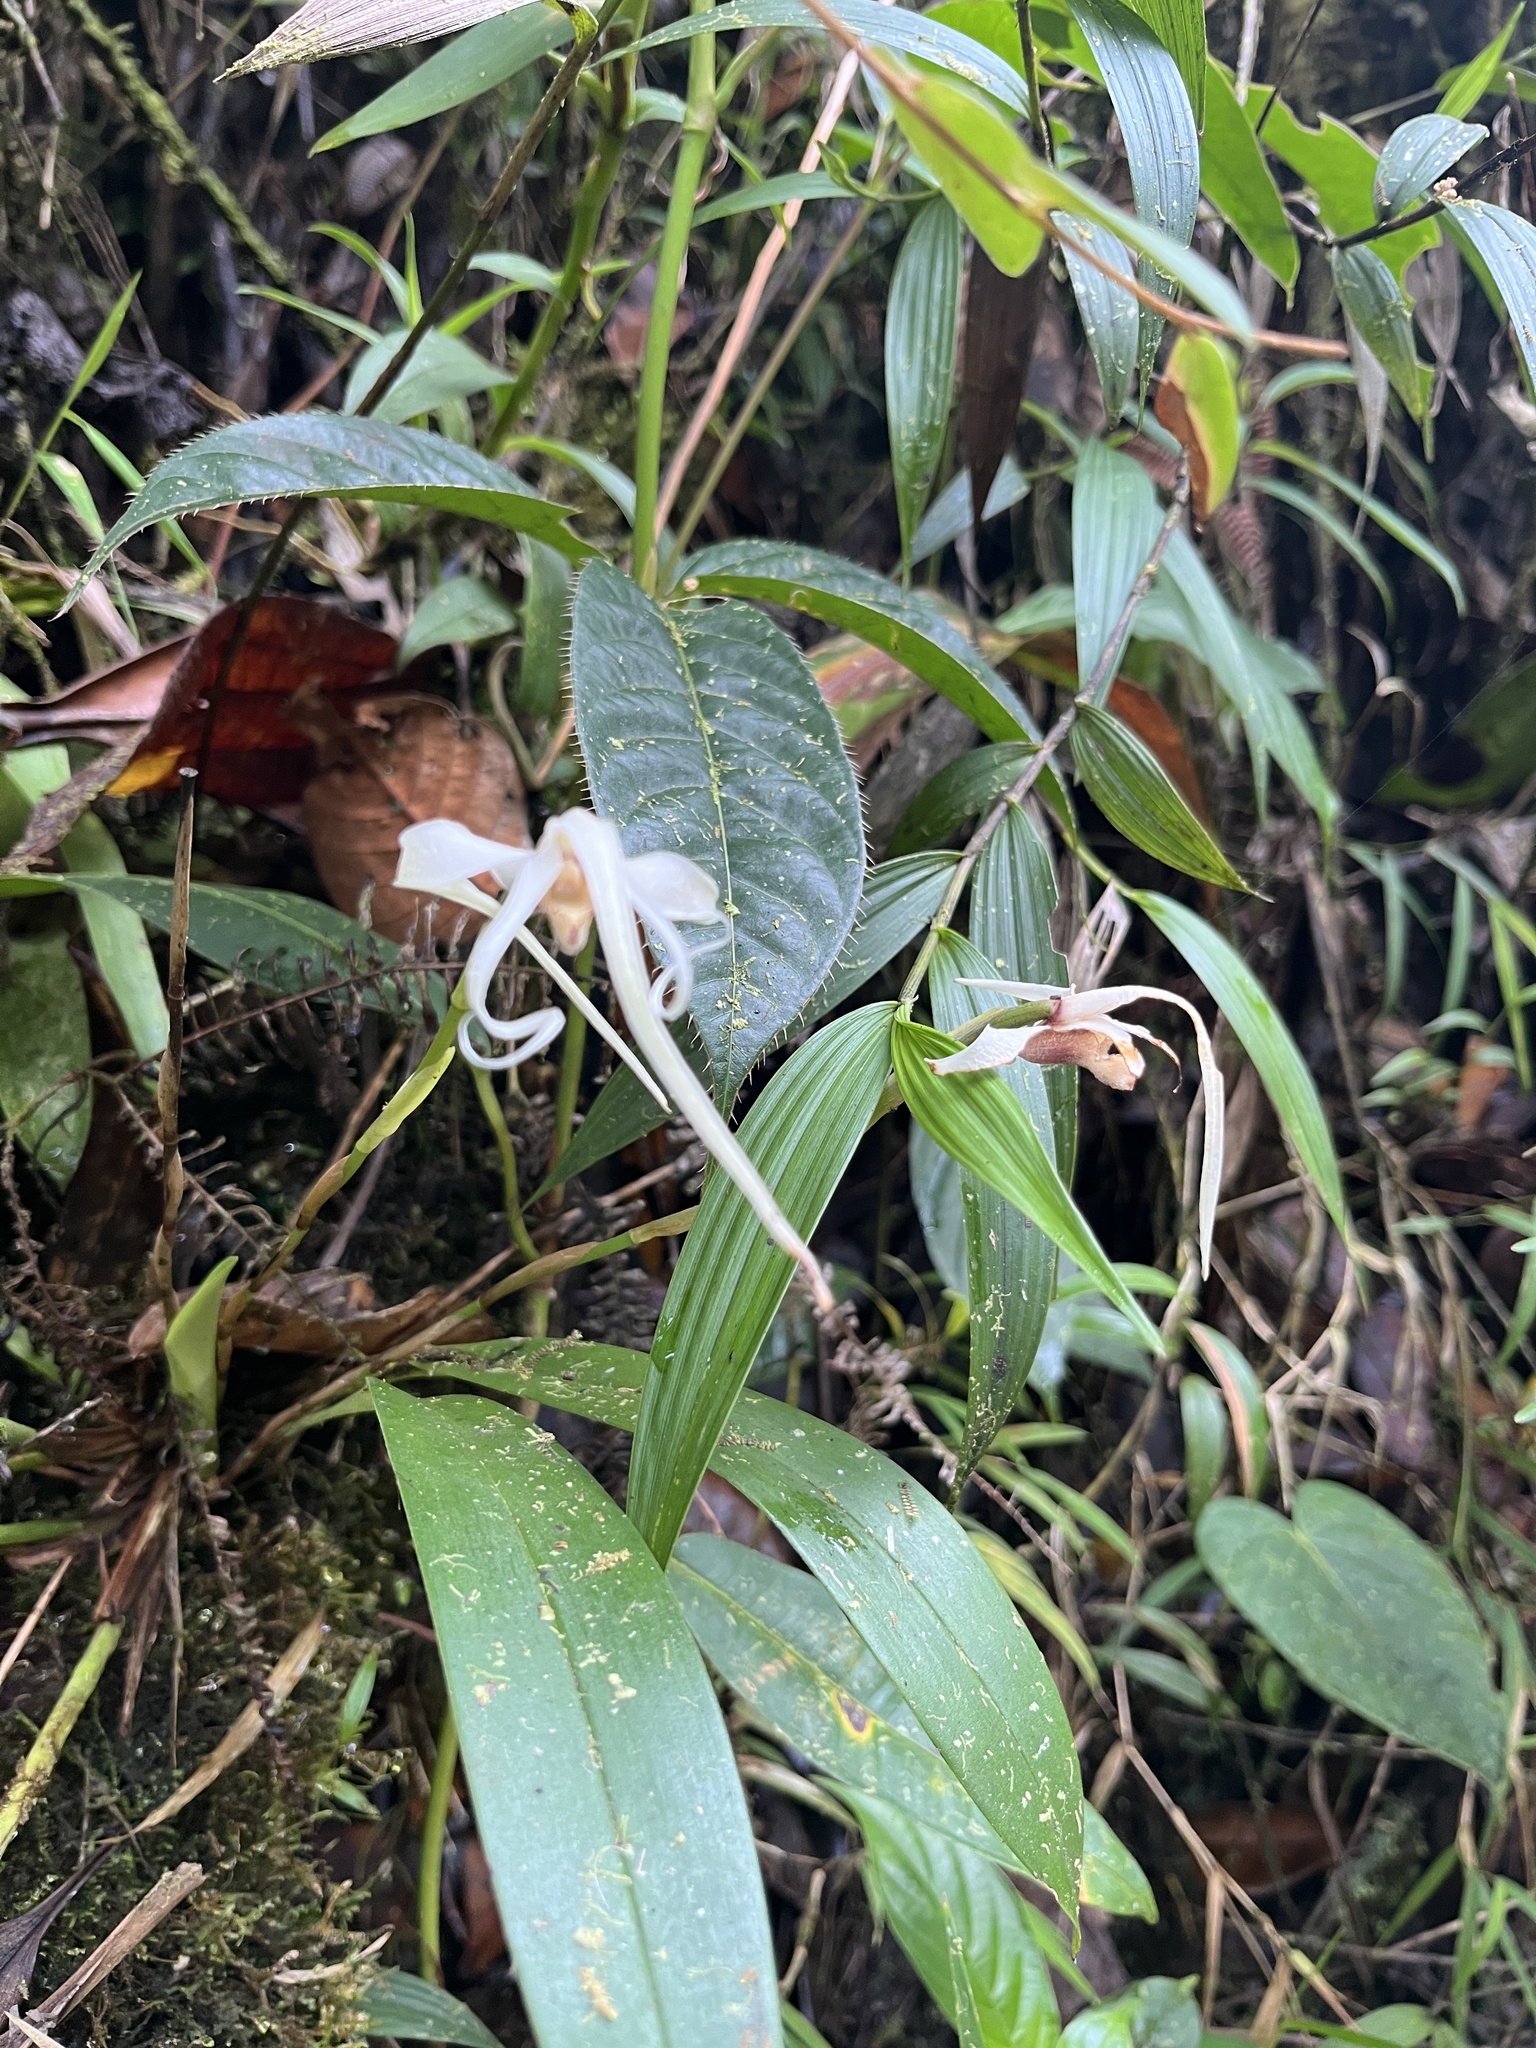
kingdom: Plantae
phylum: Tracheophyta
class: Liliopsida
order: Asparagales
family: Orchidaceae
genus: Maxillaria
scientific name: Maxillaria caucana
